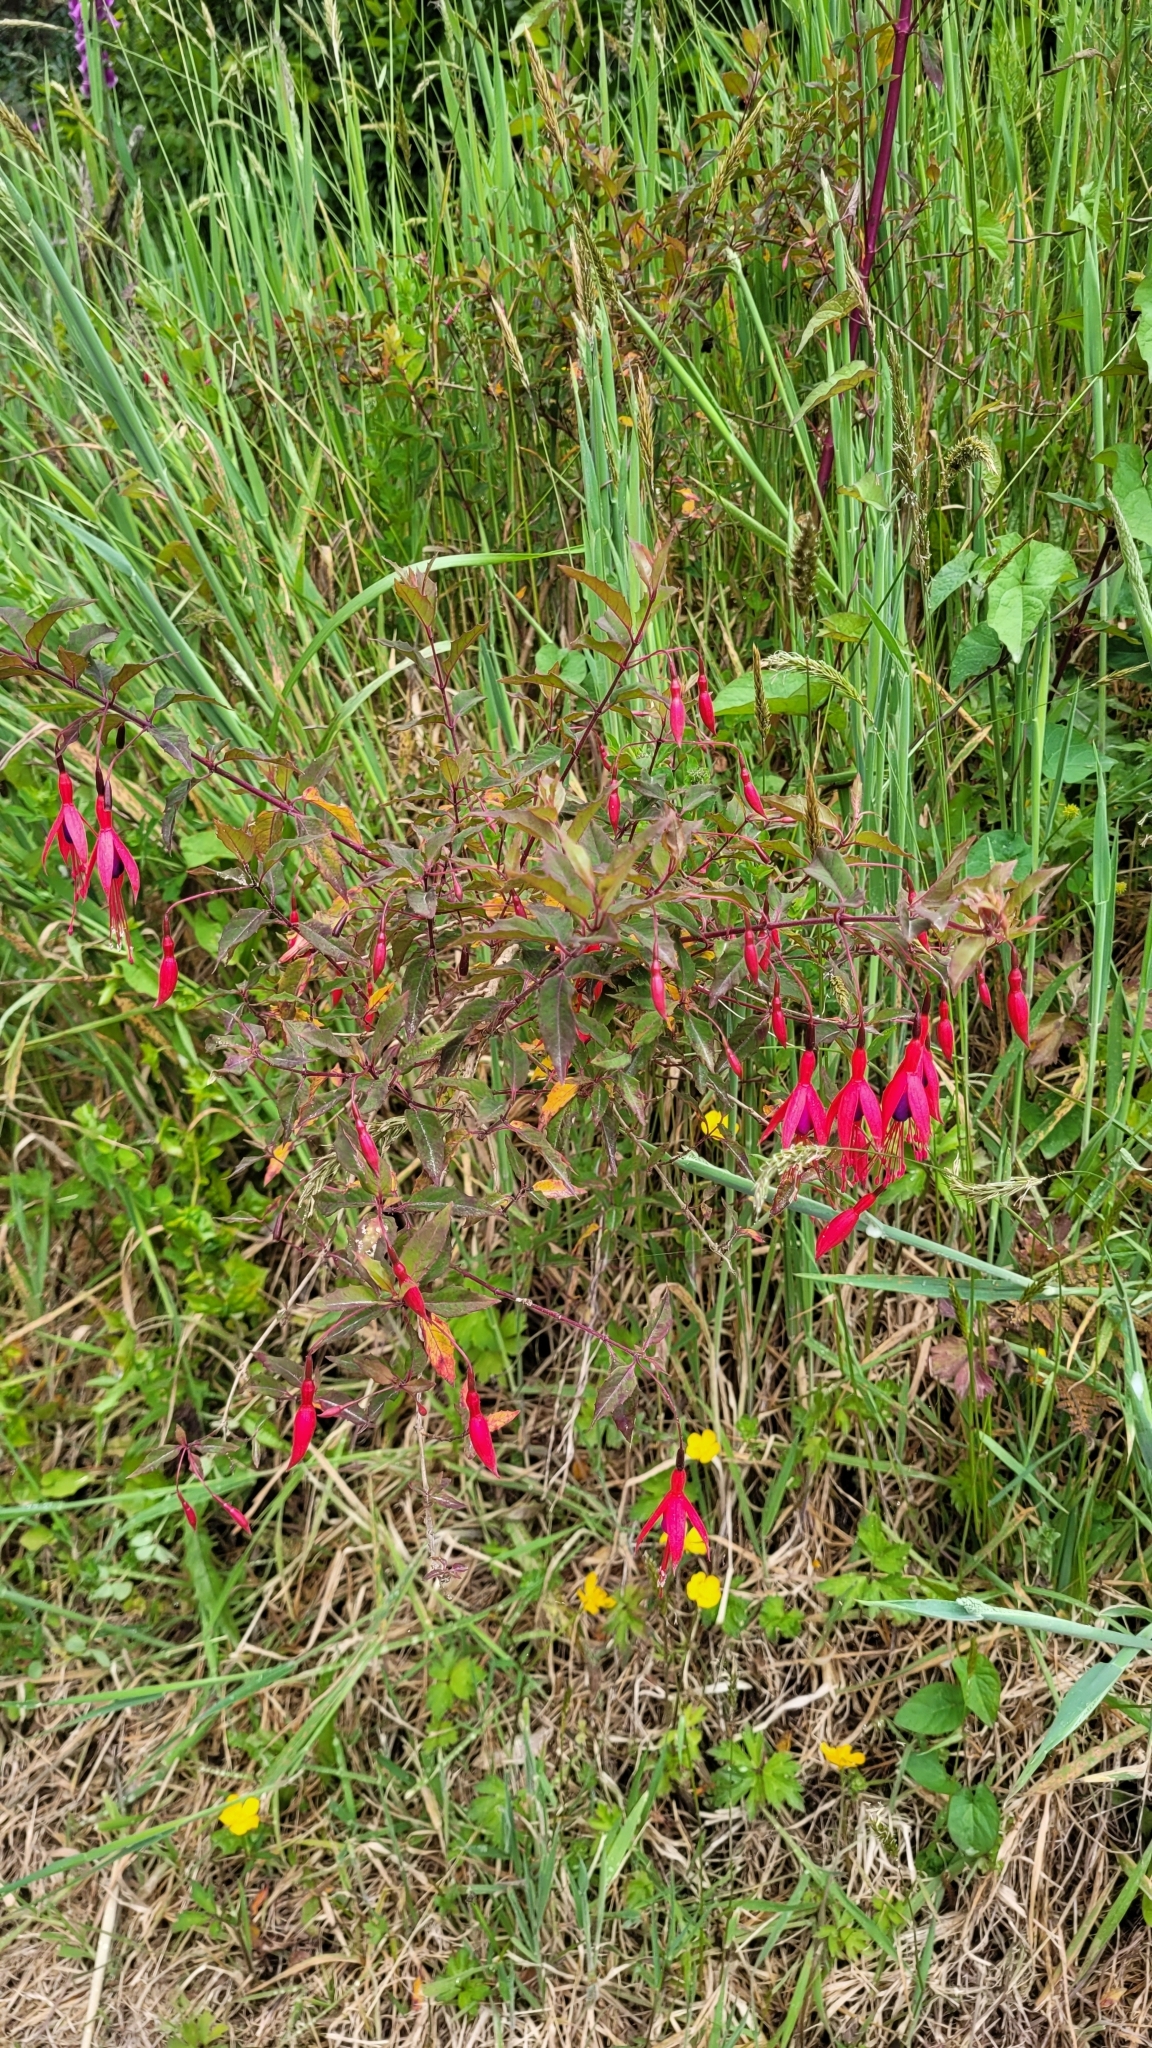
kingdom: Plantae
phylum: Tracheophyta
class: Magnoliopsida
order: Myrtales
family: Onagraceae
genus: Fuchsia
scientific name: Fuchsia magellanica
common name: Hardy fuchsia
